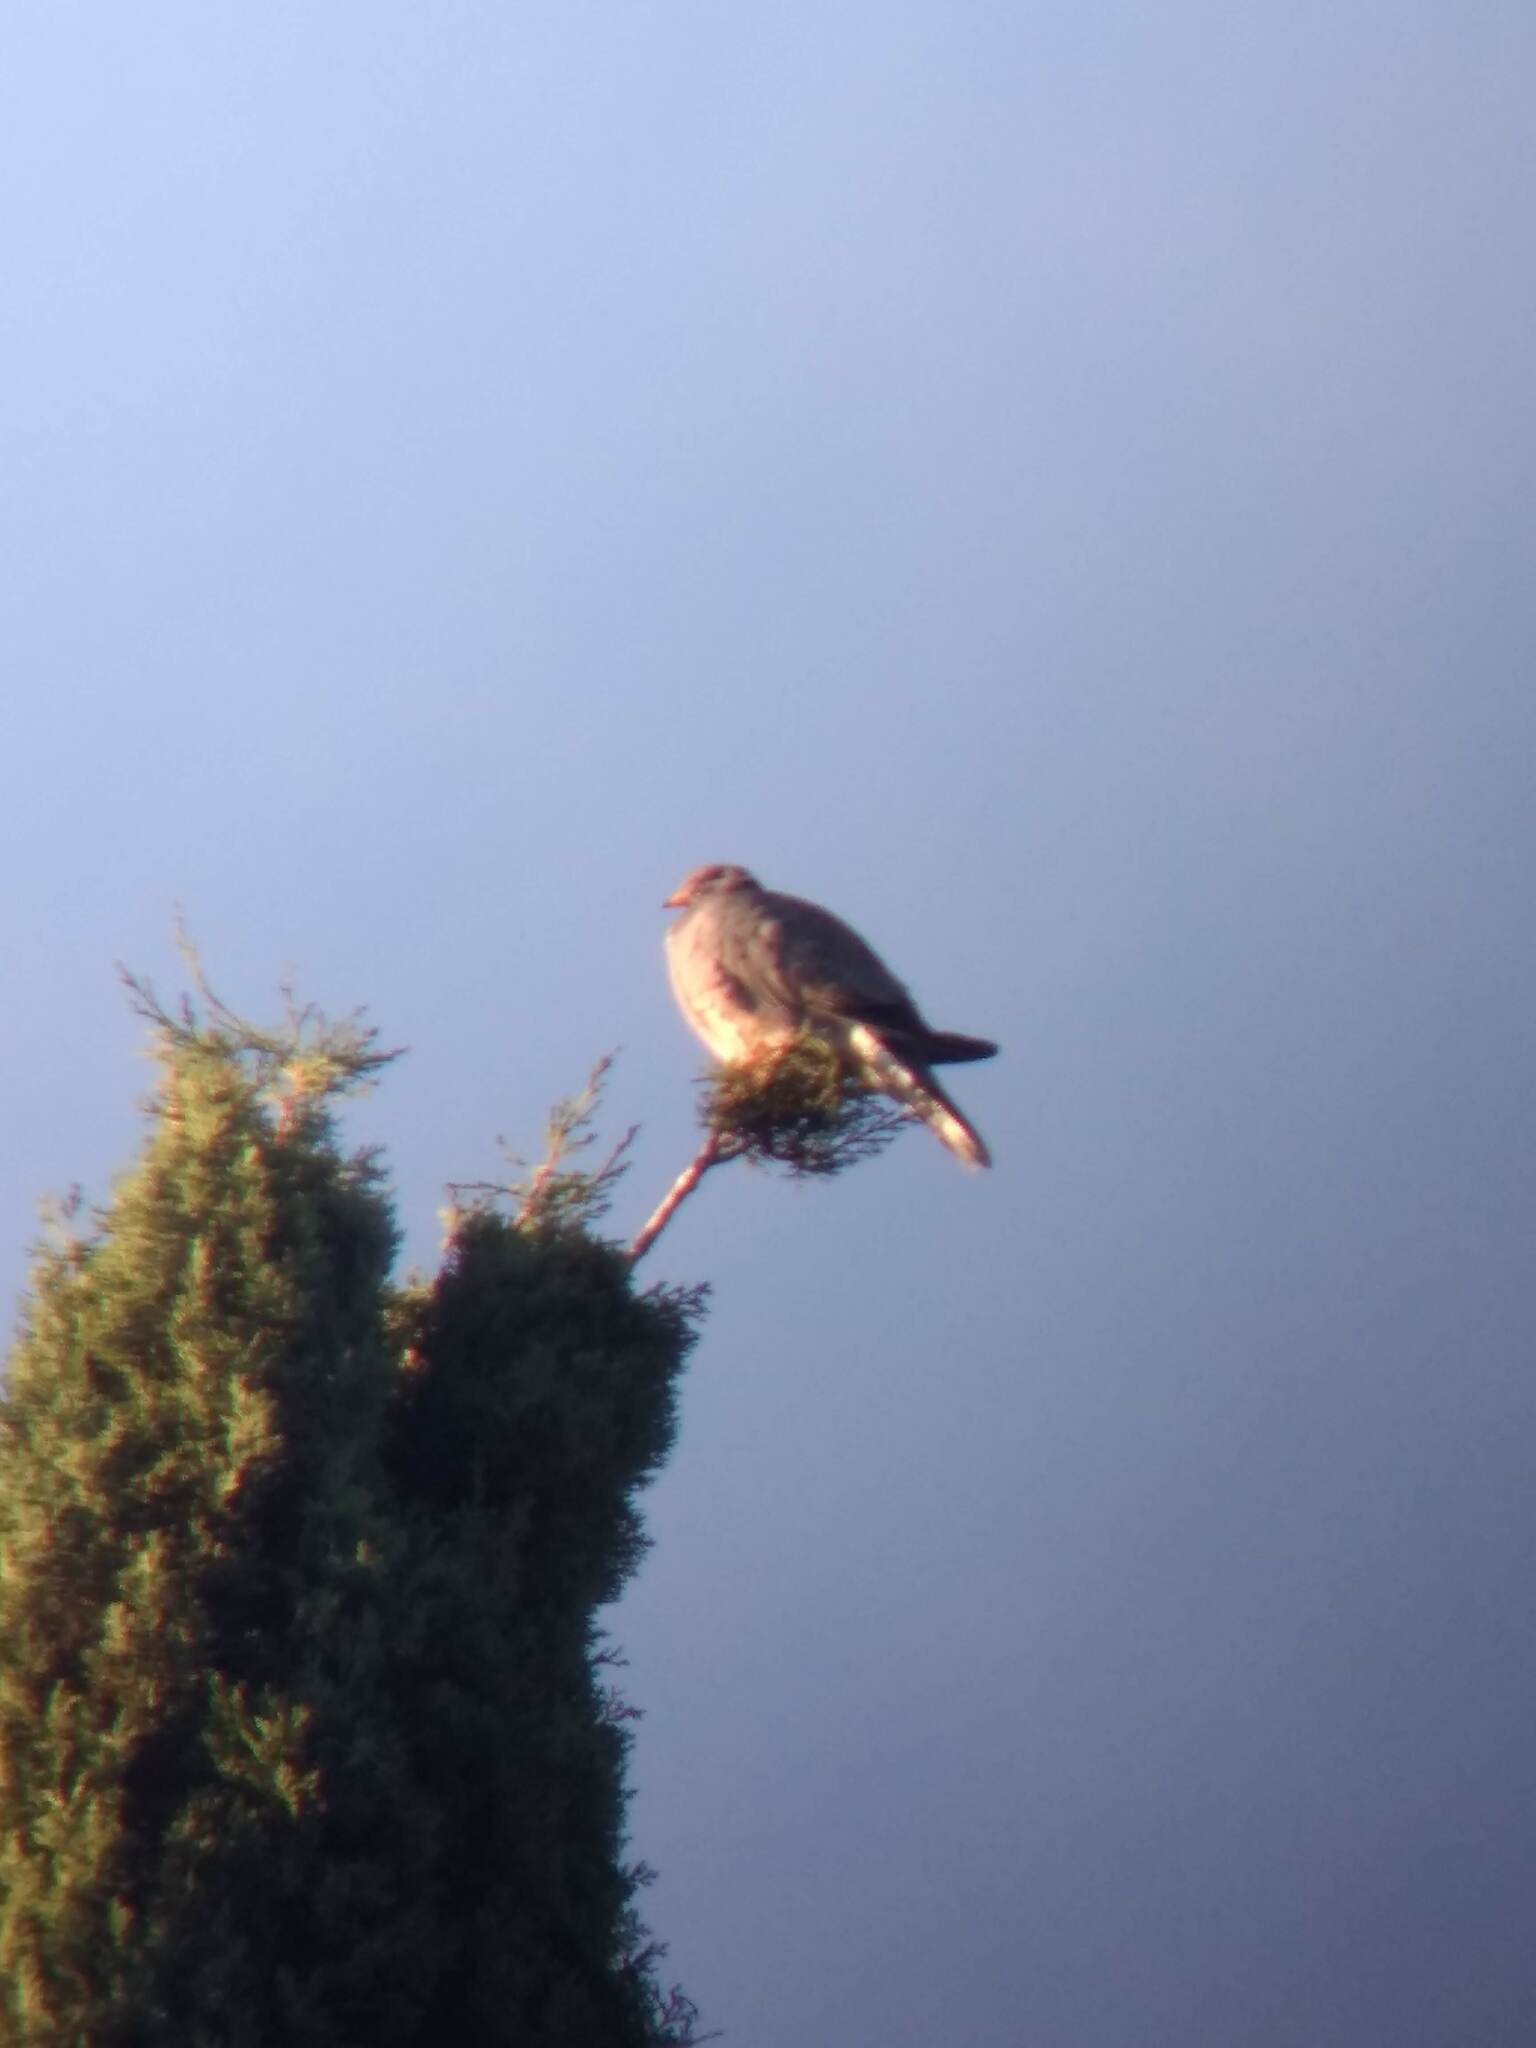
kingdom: Animalia
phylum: Chordata
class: Aves
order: Columbiformes
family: Columbidae
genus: Patagioenas
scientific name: Patagioenas fasciata
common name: Band-tailed pigeon
